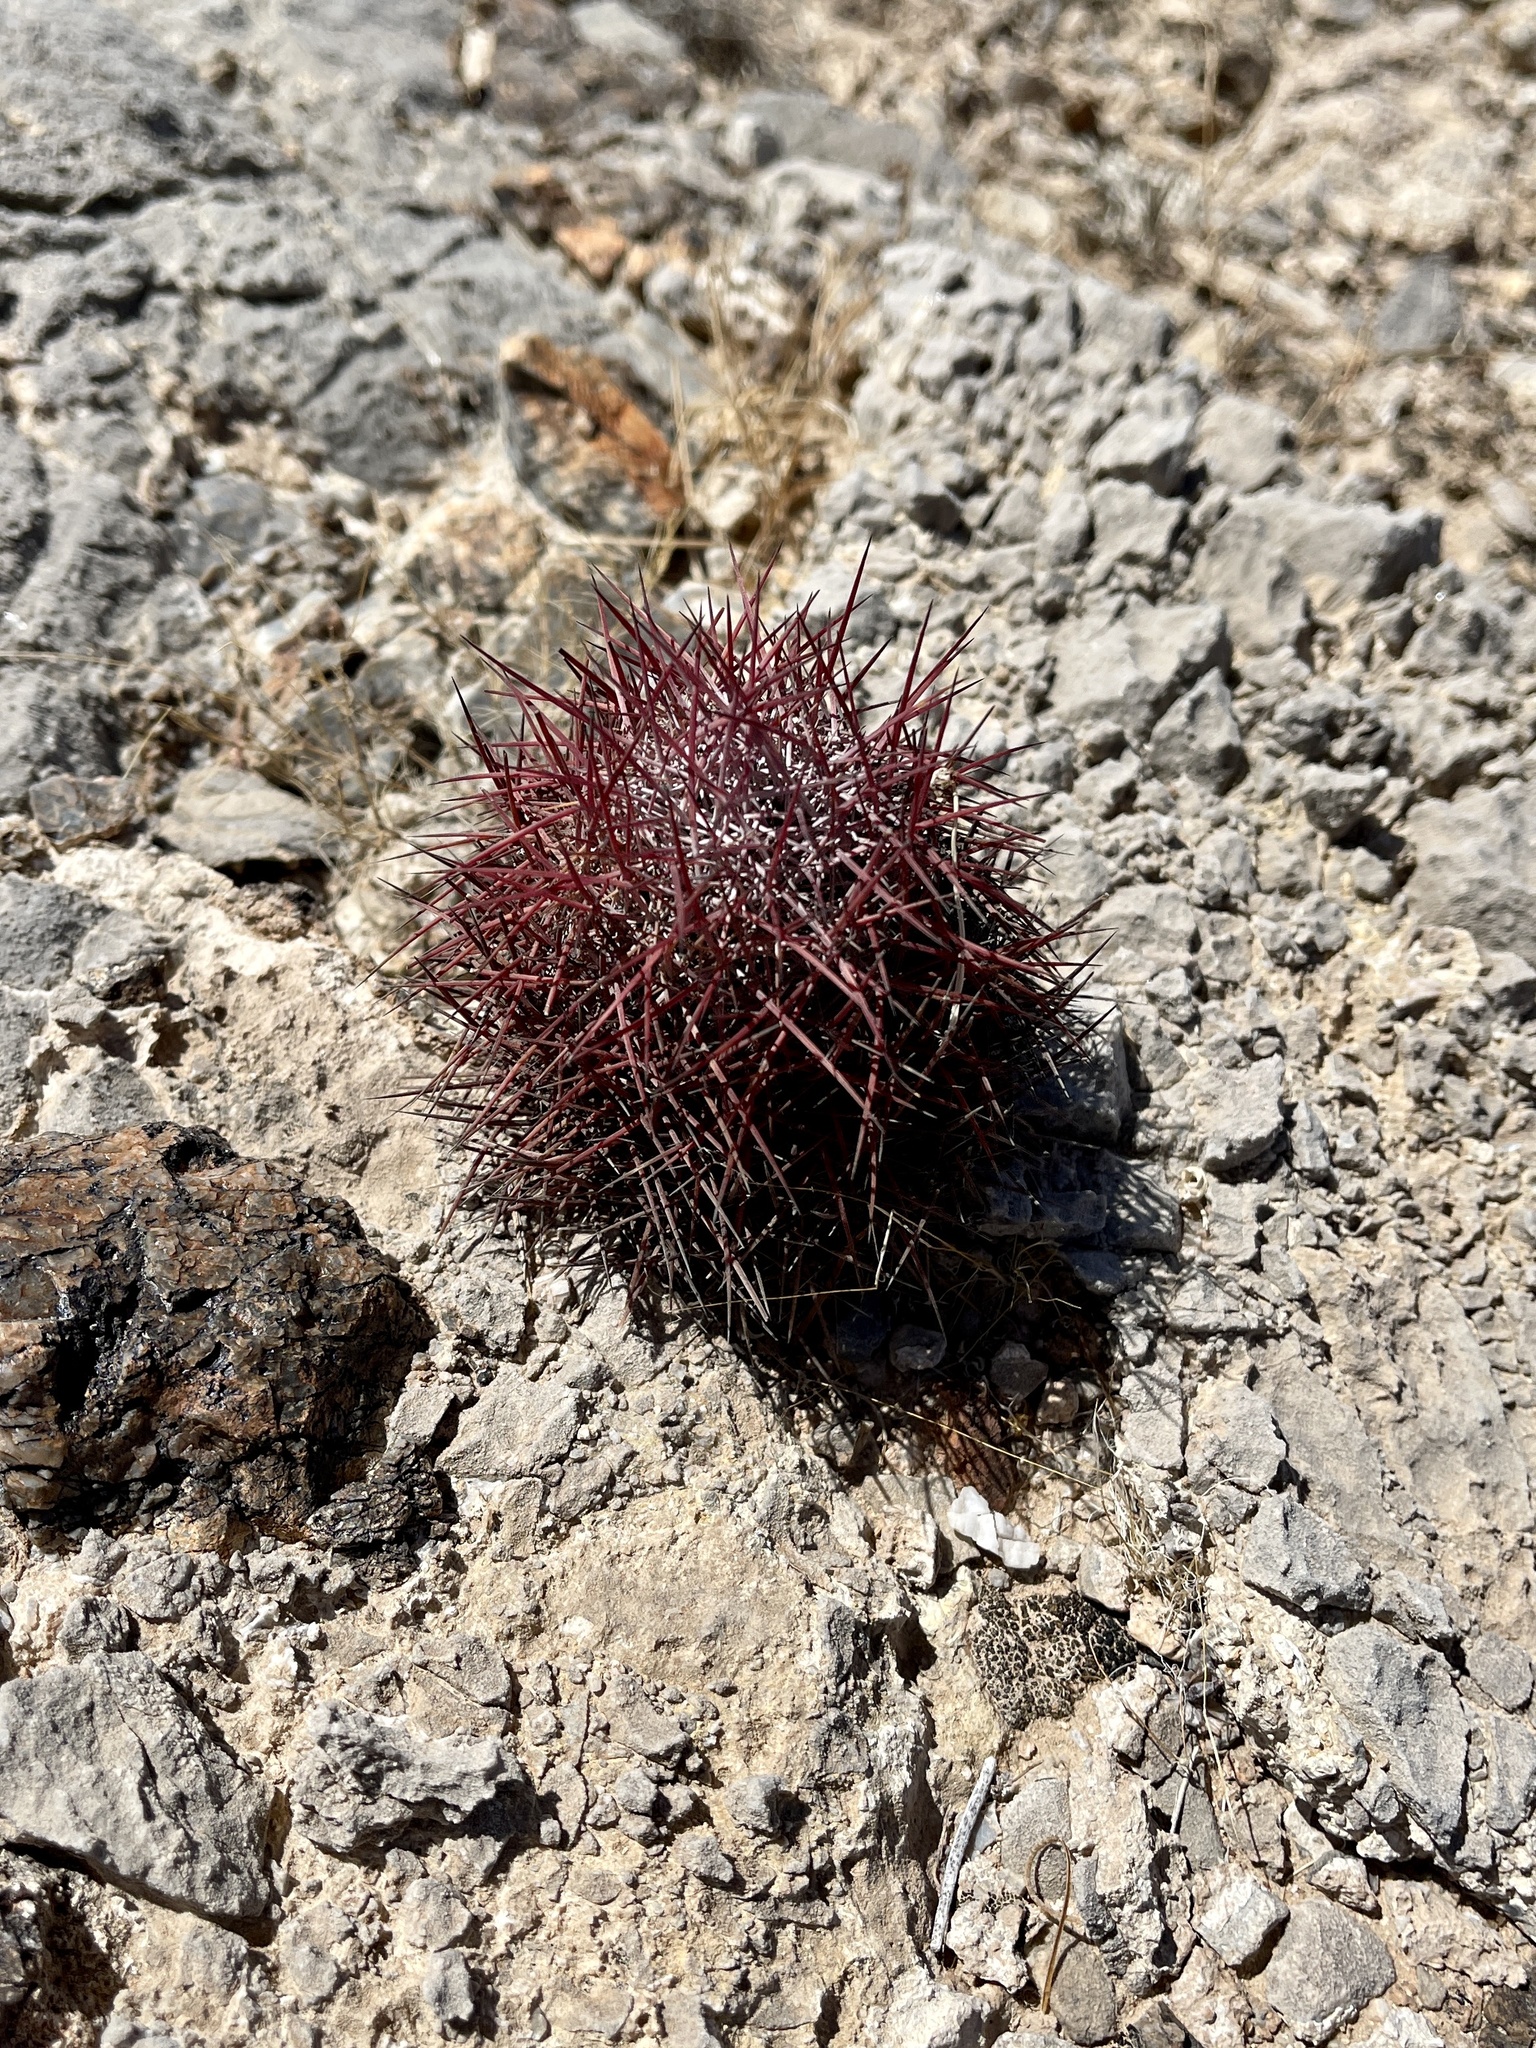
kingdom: Plantae
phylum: Tracheophyta
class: Magnoliopsida
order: Caryophyllales
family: Cactaceae
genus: Sclerocactus
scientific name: Sclerocactus johnsonii
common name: Eight-spine fishhook cactus
